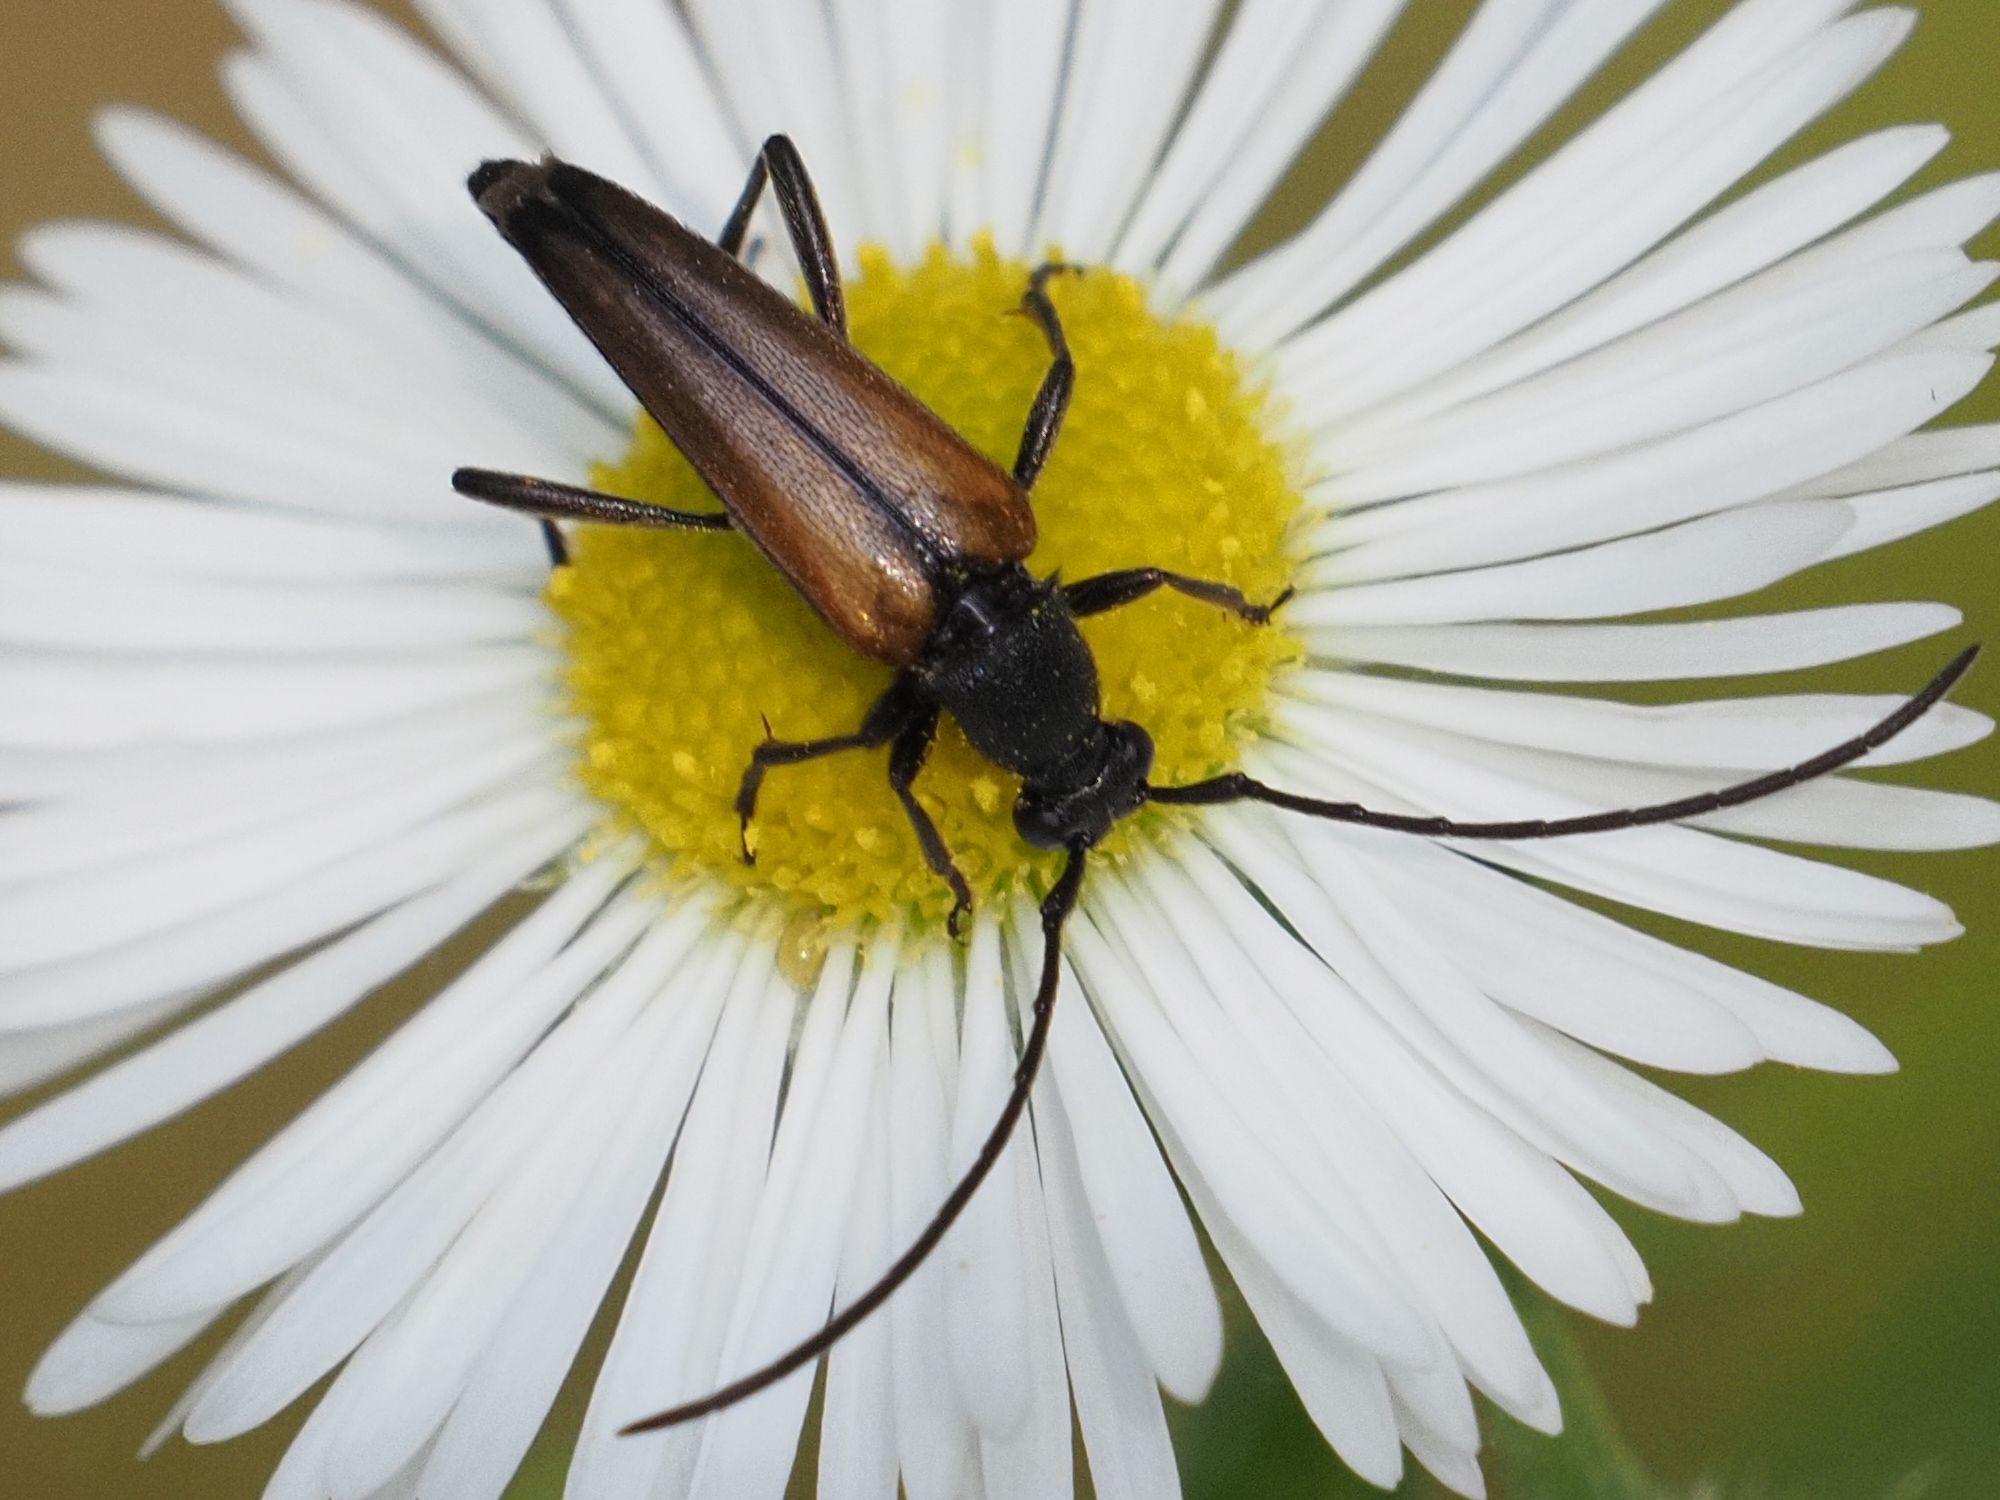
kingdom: Animalia
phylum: Arthropoda
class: Insecta
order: Coleoptera
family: Cerambycidae
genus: Stenurella
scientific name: Stenurella melanura
